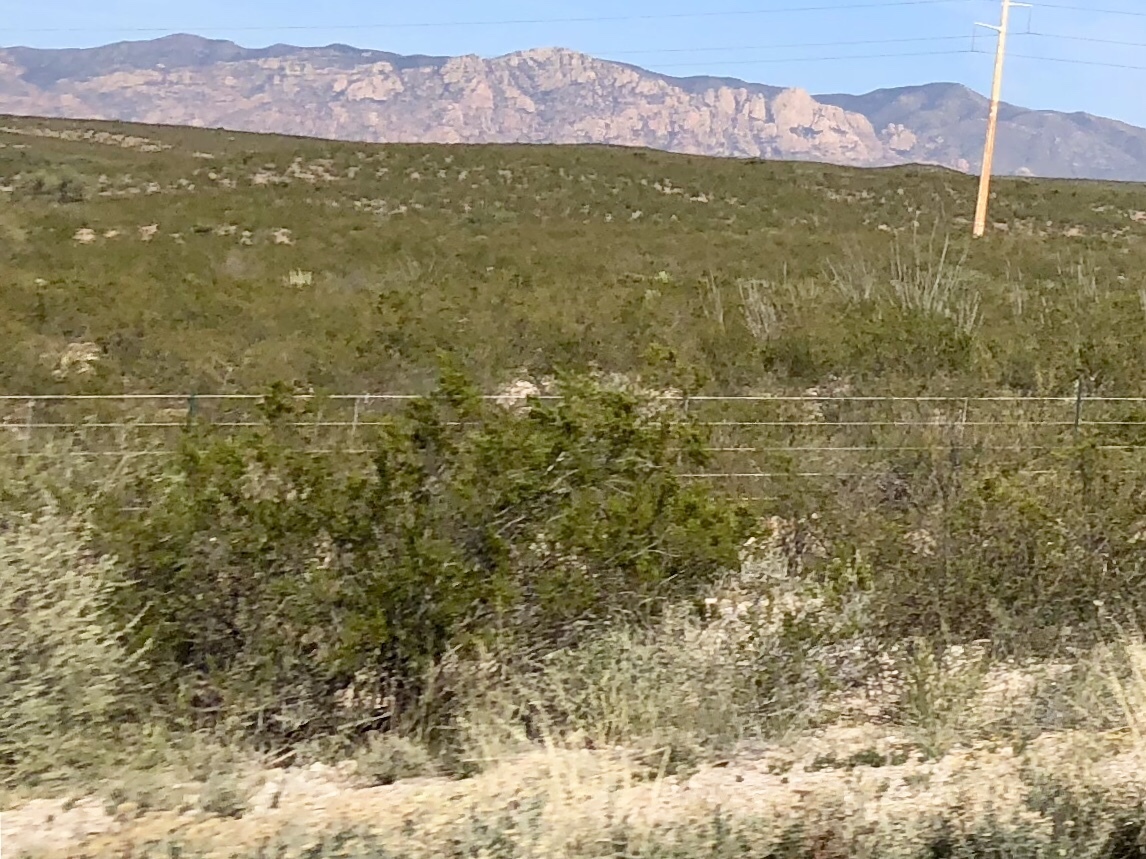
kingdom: Plantae
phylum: Tracheophyta
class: Magnoliopsida
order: Zygophyllales
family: Zygophyllaceae
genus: Larrea
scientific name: Larrea tridentata
